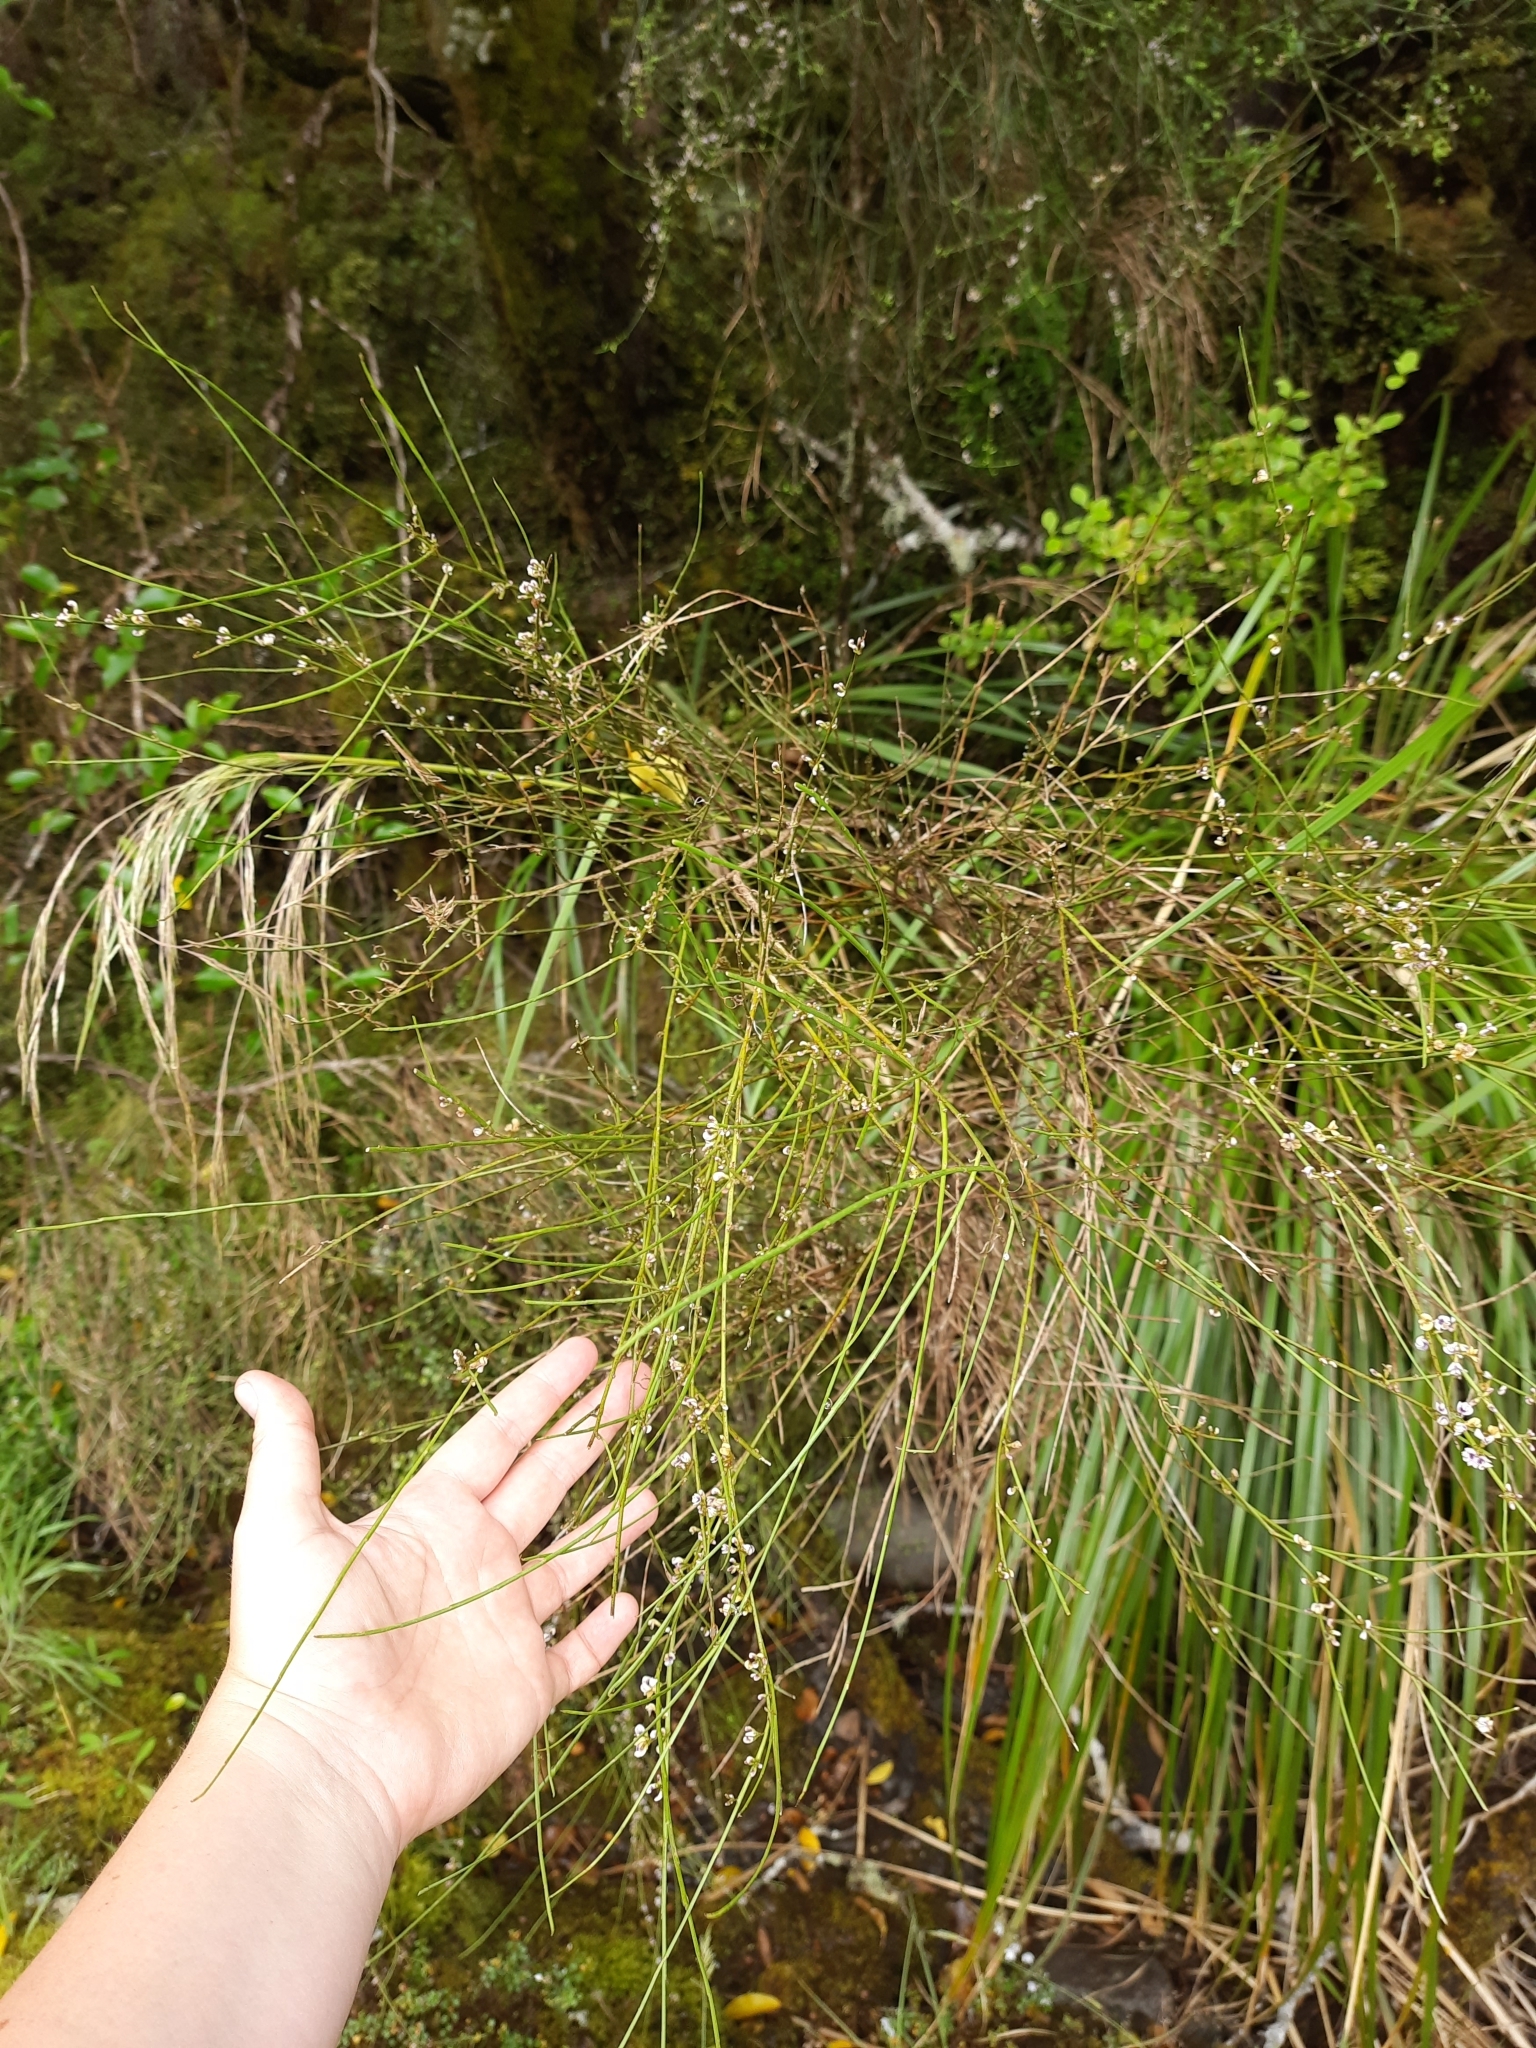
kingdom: Plantae
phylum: Tracheophyta
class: Magnoliopsida
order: Fabales
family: Fabaceae
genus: Carmichaelia
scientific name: Carmichaelia australis
